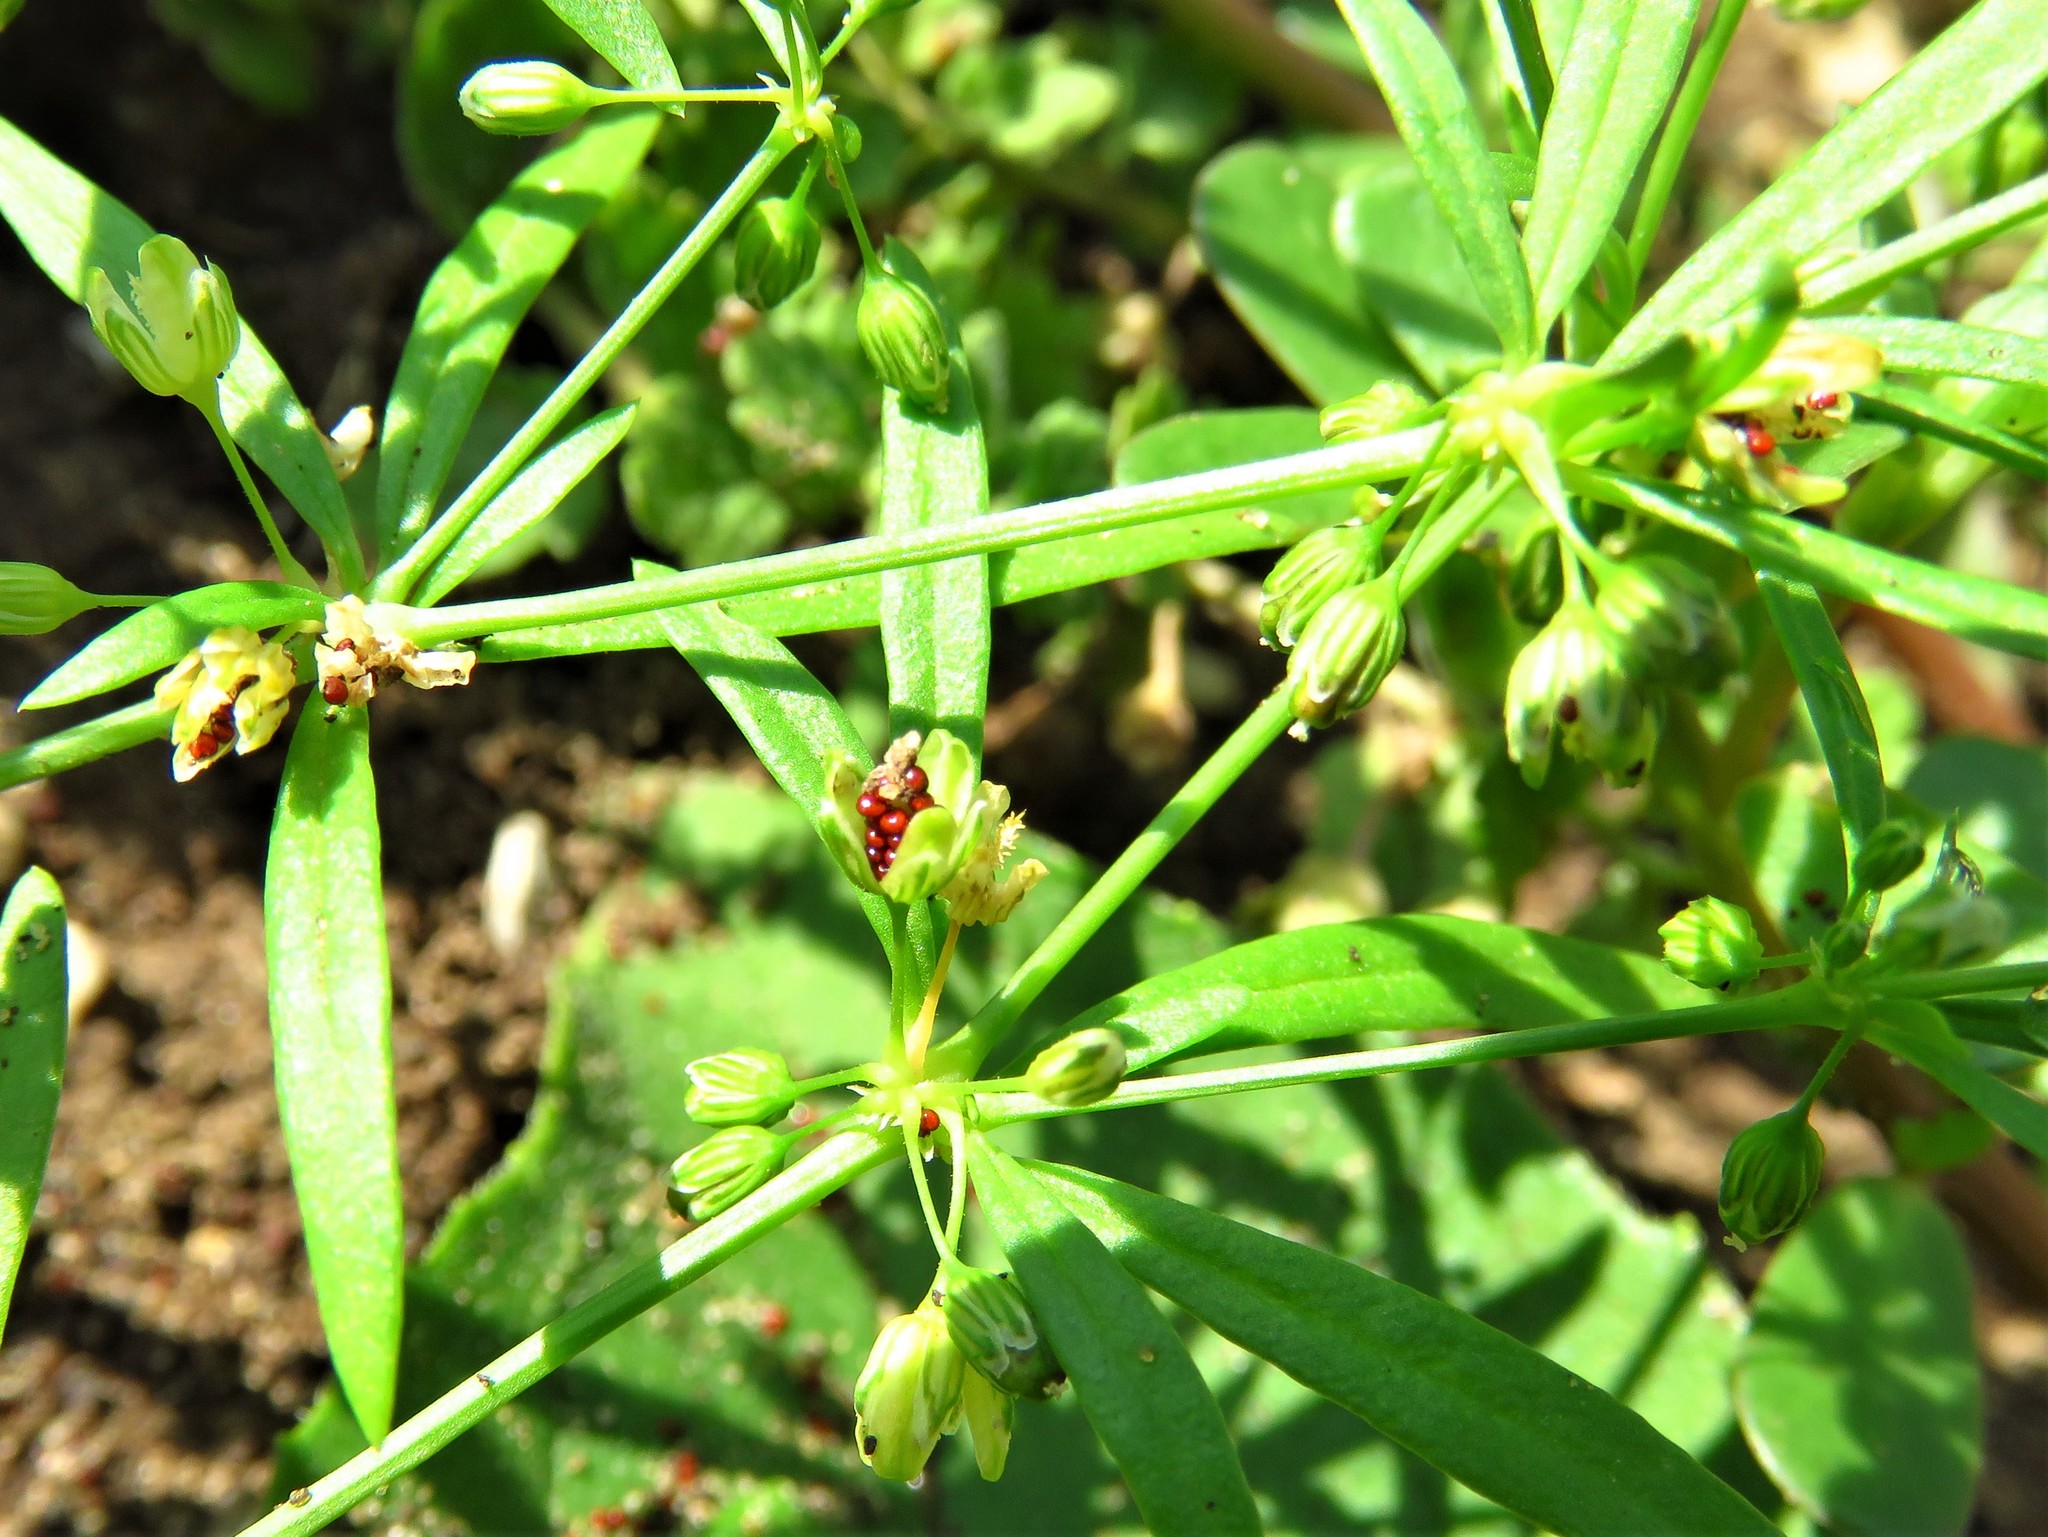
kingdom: Plantae
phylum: Tracheophyta
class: Magnoliopsida
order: Caryophyllales
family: Molluginaceae
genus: Mollugo
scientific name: Mollugo verticillata
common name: Green carpetweed
